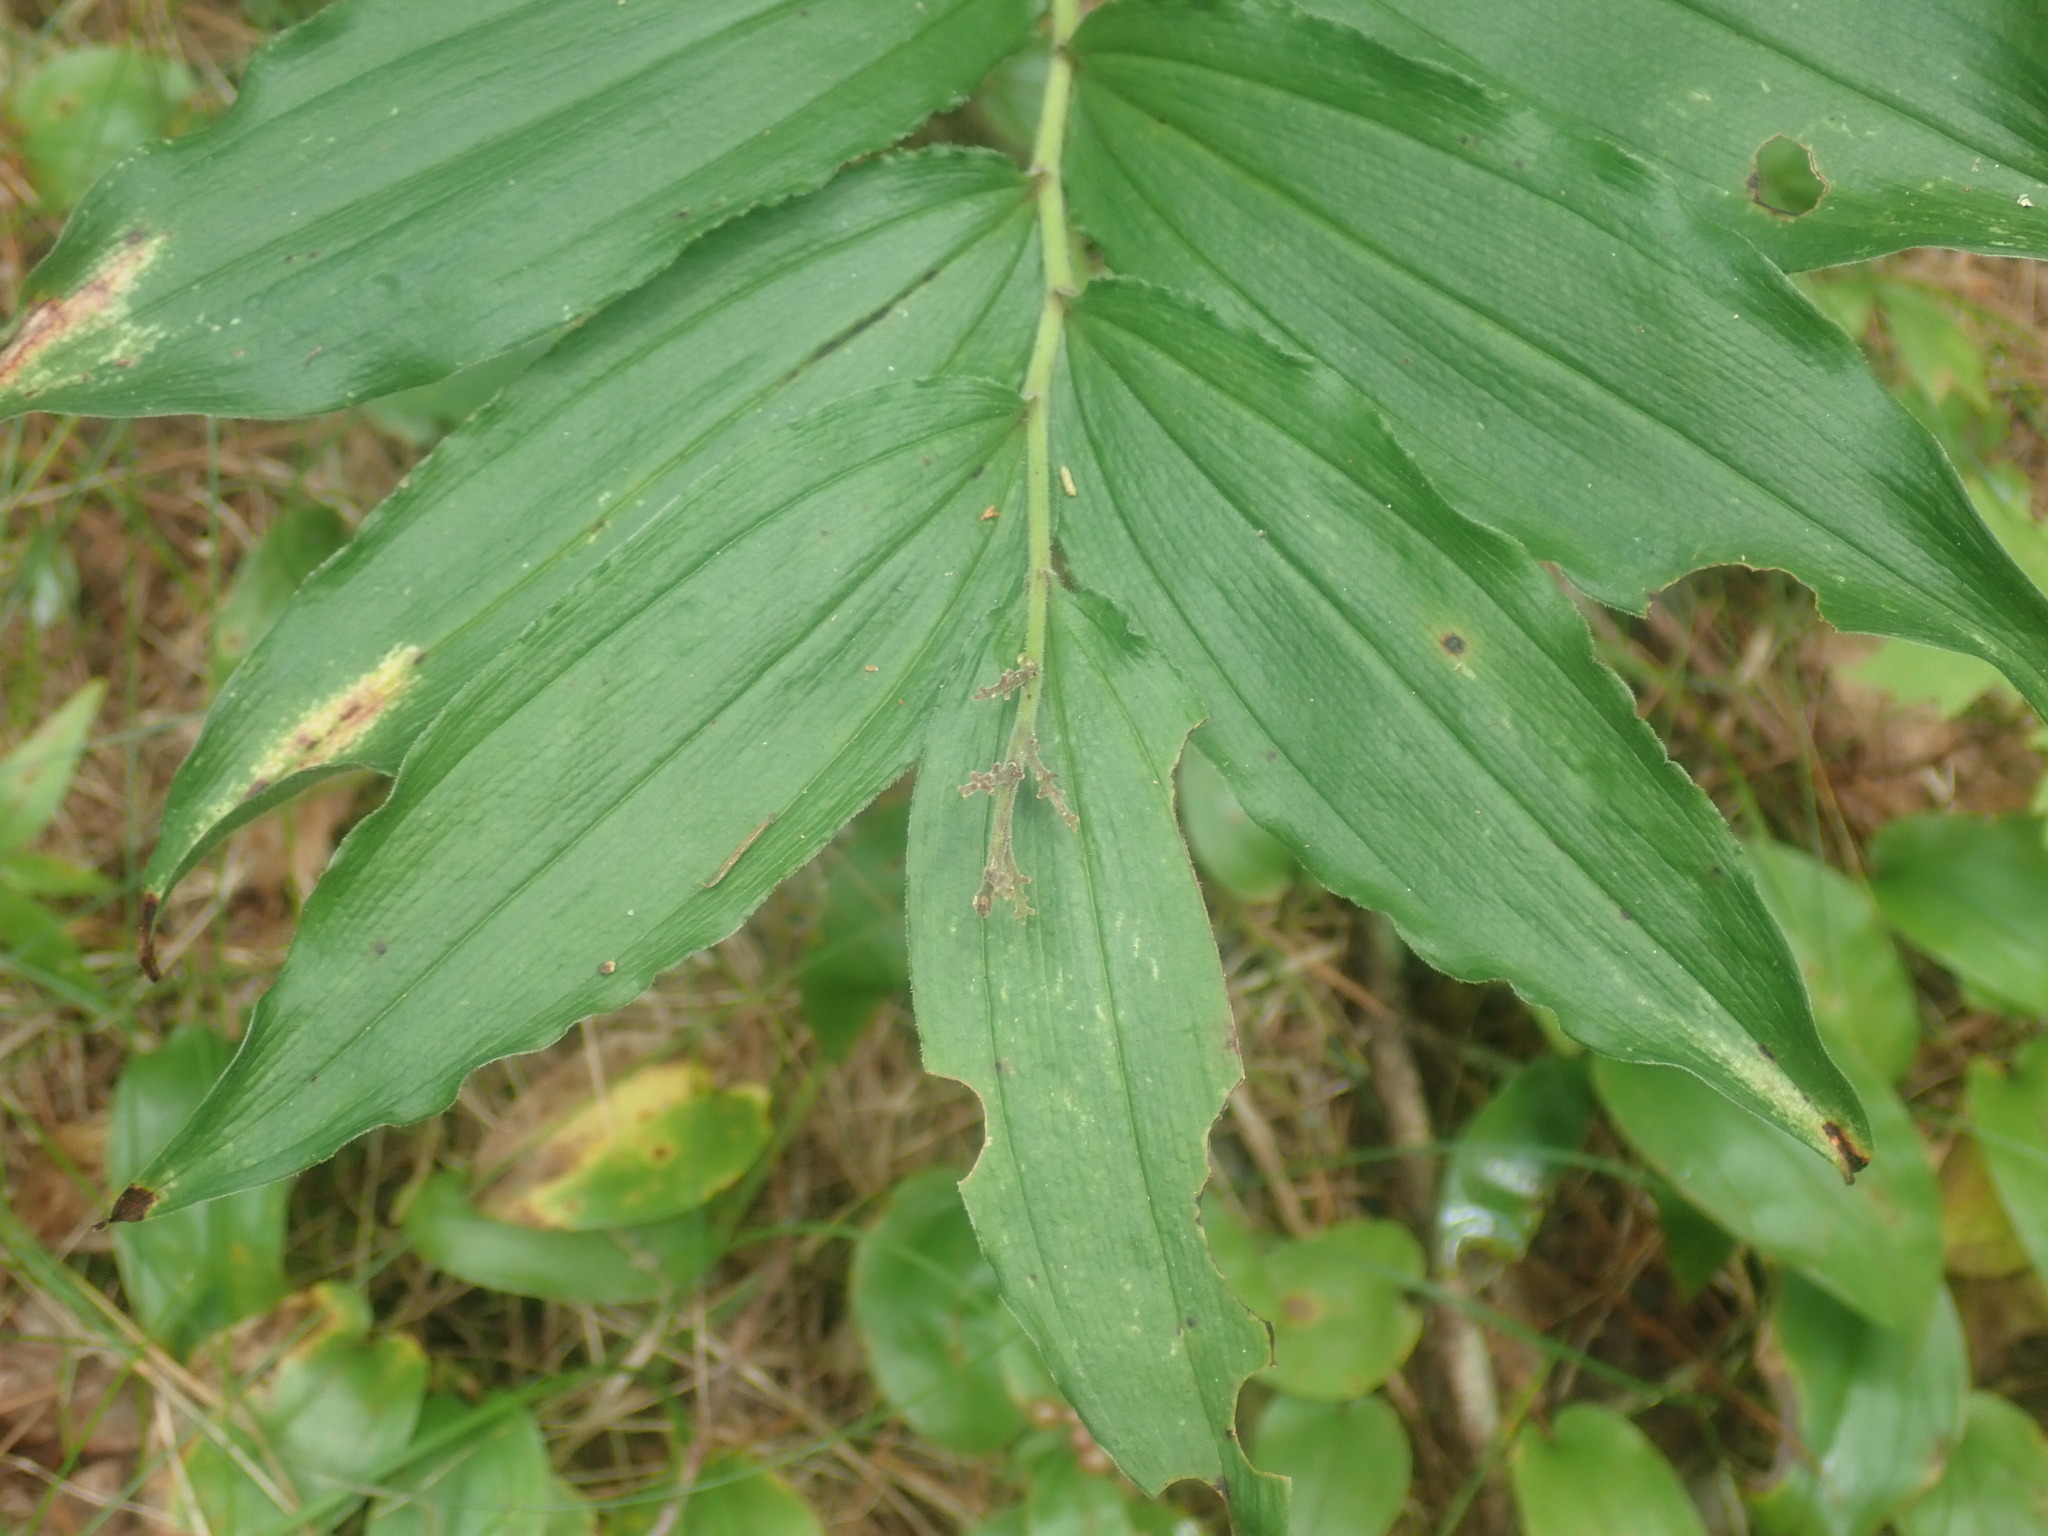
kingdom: Plantae
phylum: Tracheophyta
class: Liliopsida
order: Asparagales
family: Asparagaceae
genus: Maianthemum
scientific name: Maianthemum racemosum
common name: False spikenard
